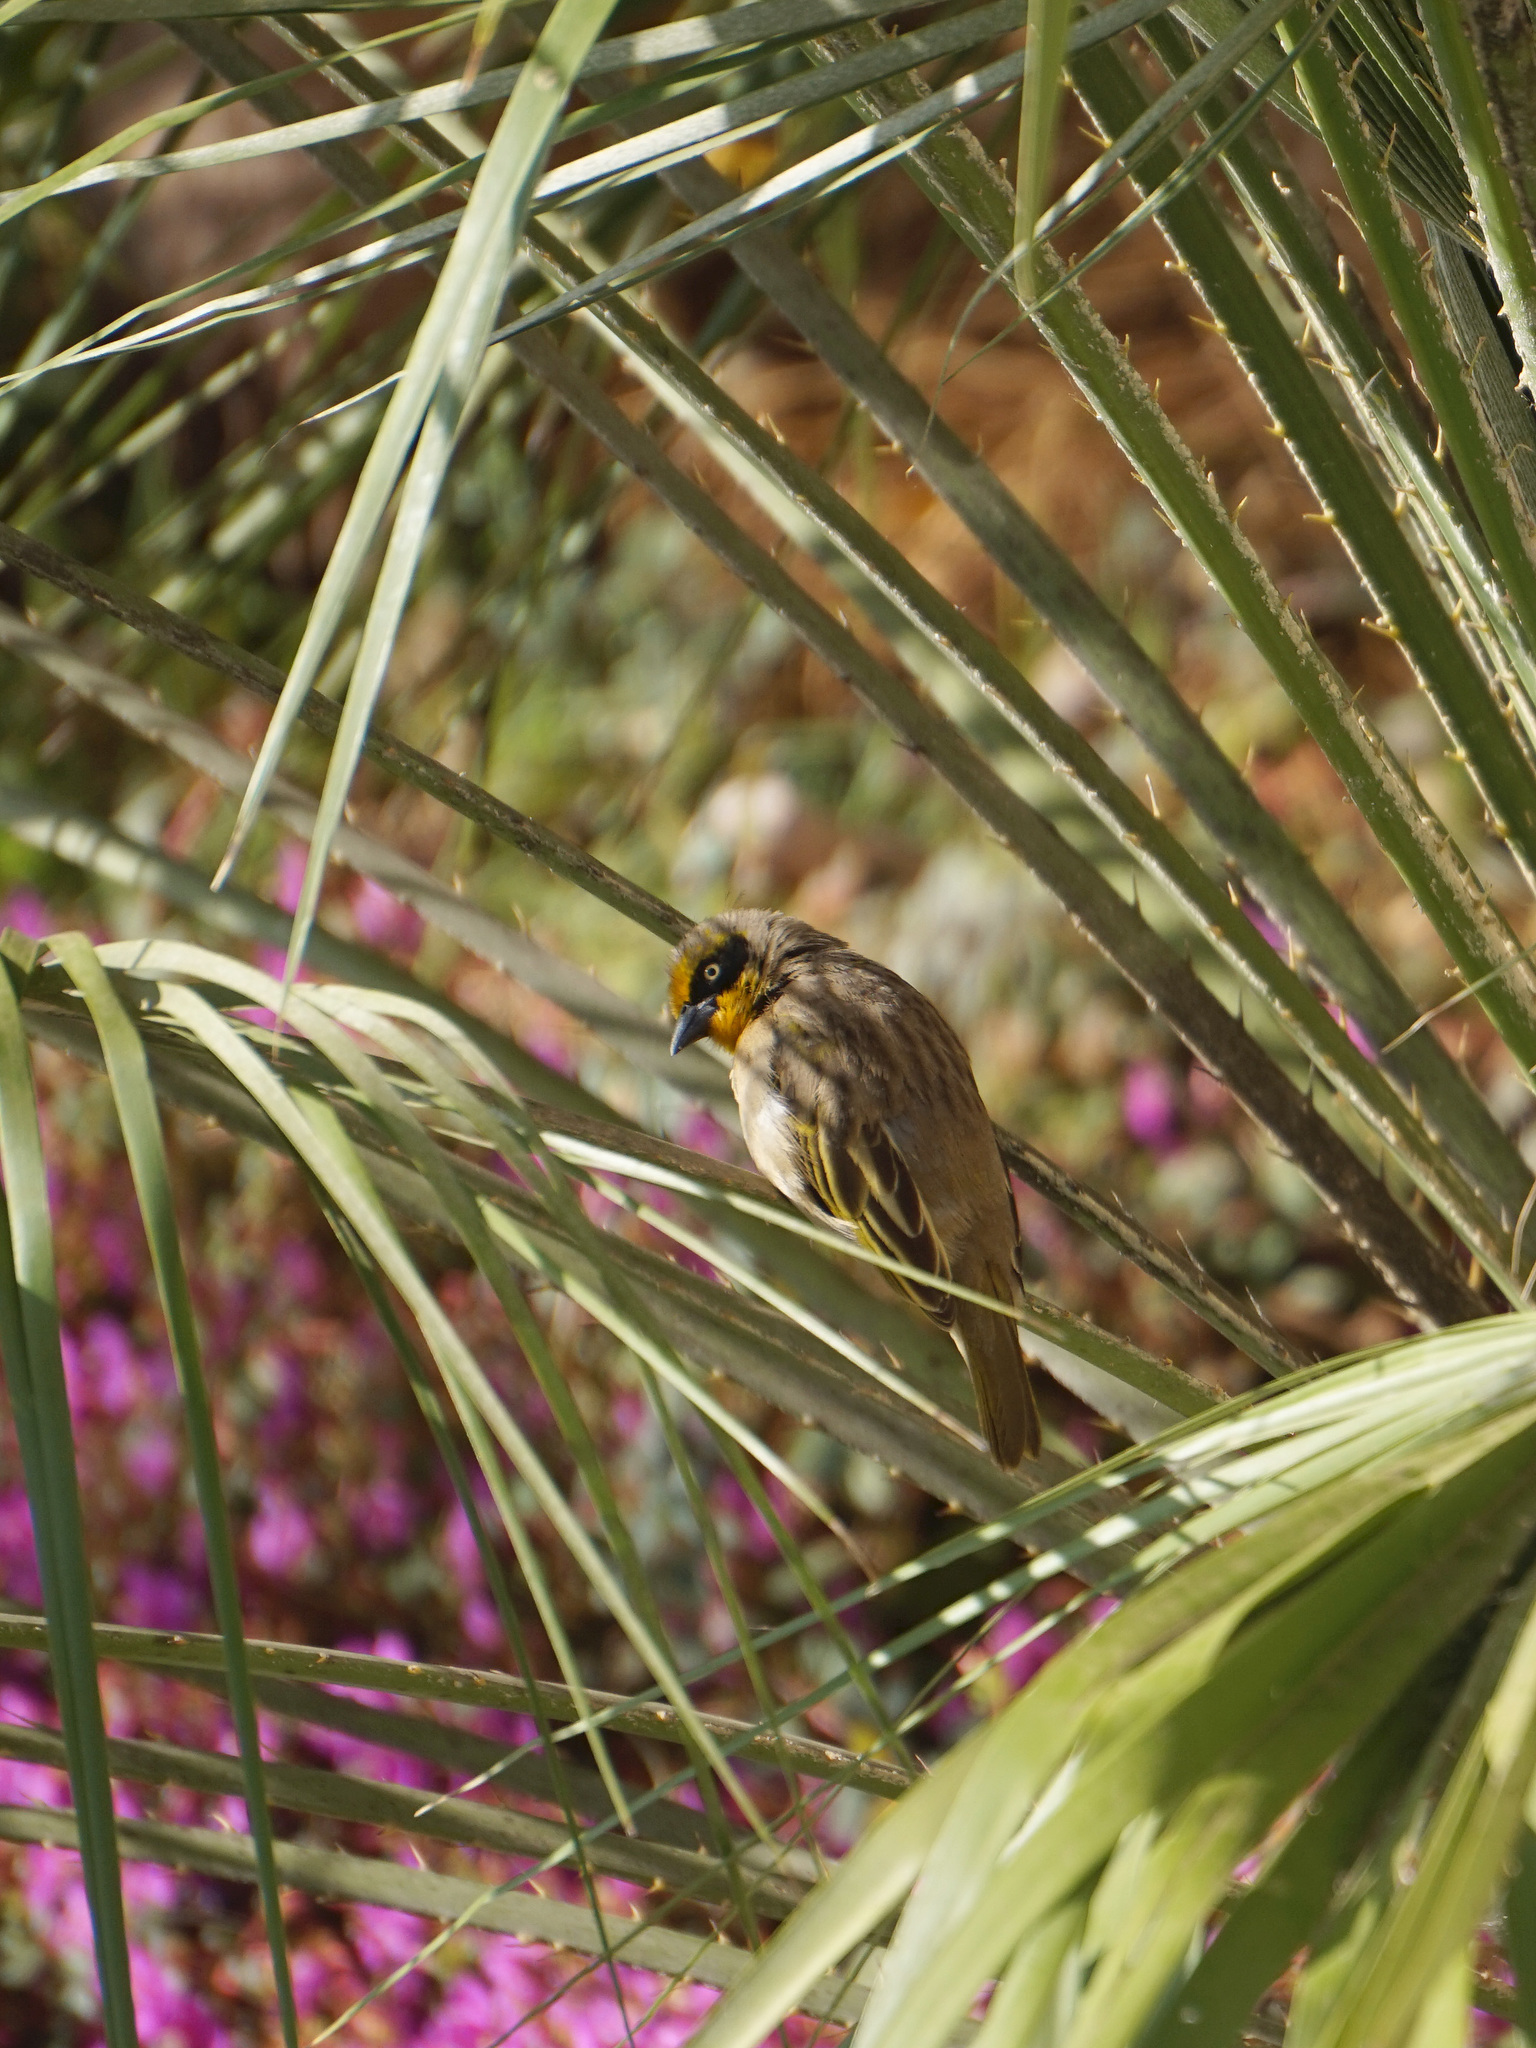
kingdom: Animalia
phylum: Chordata
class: Aves
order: Passeriformes
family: Ploceidae
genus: Ploceus
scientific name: Ploceus baglafecht
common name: Baglafecht weaver
